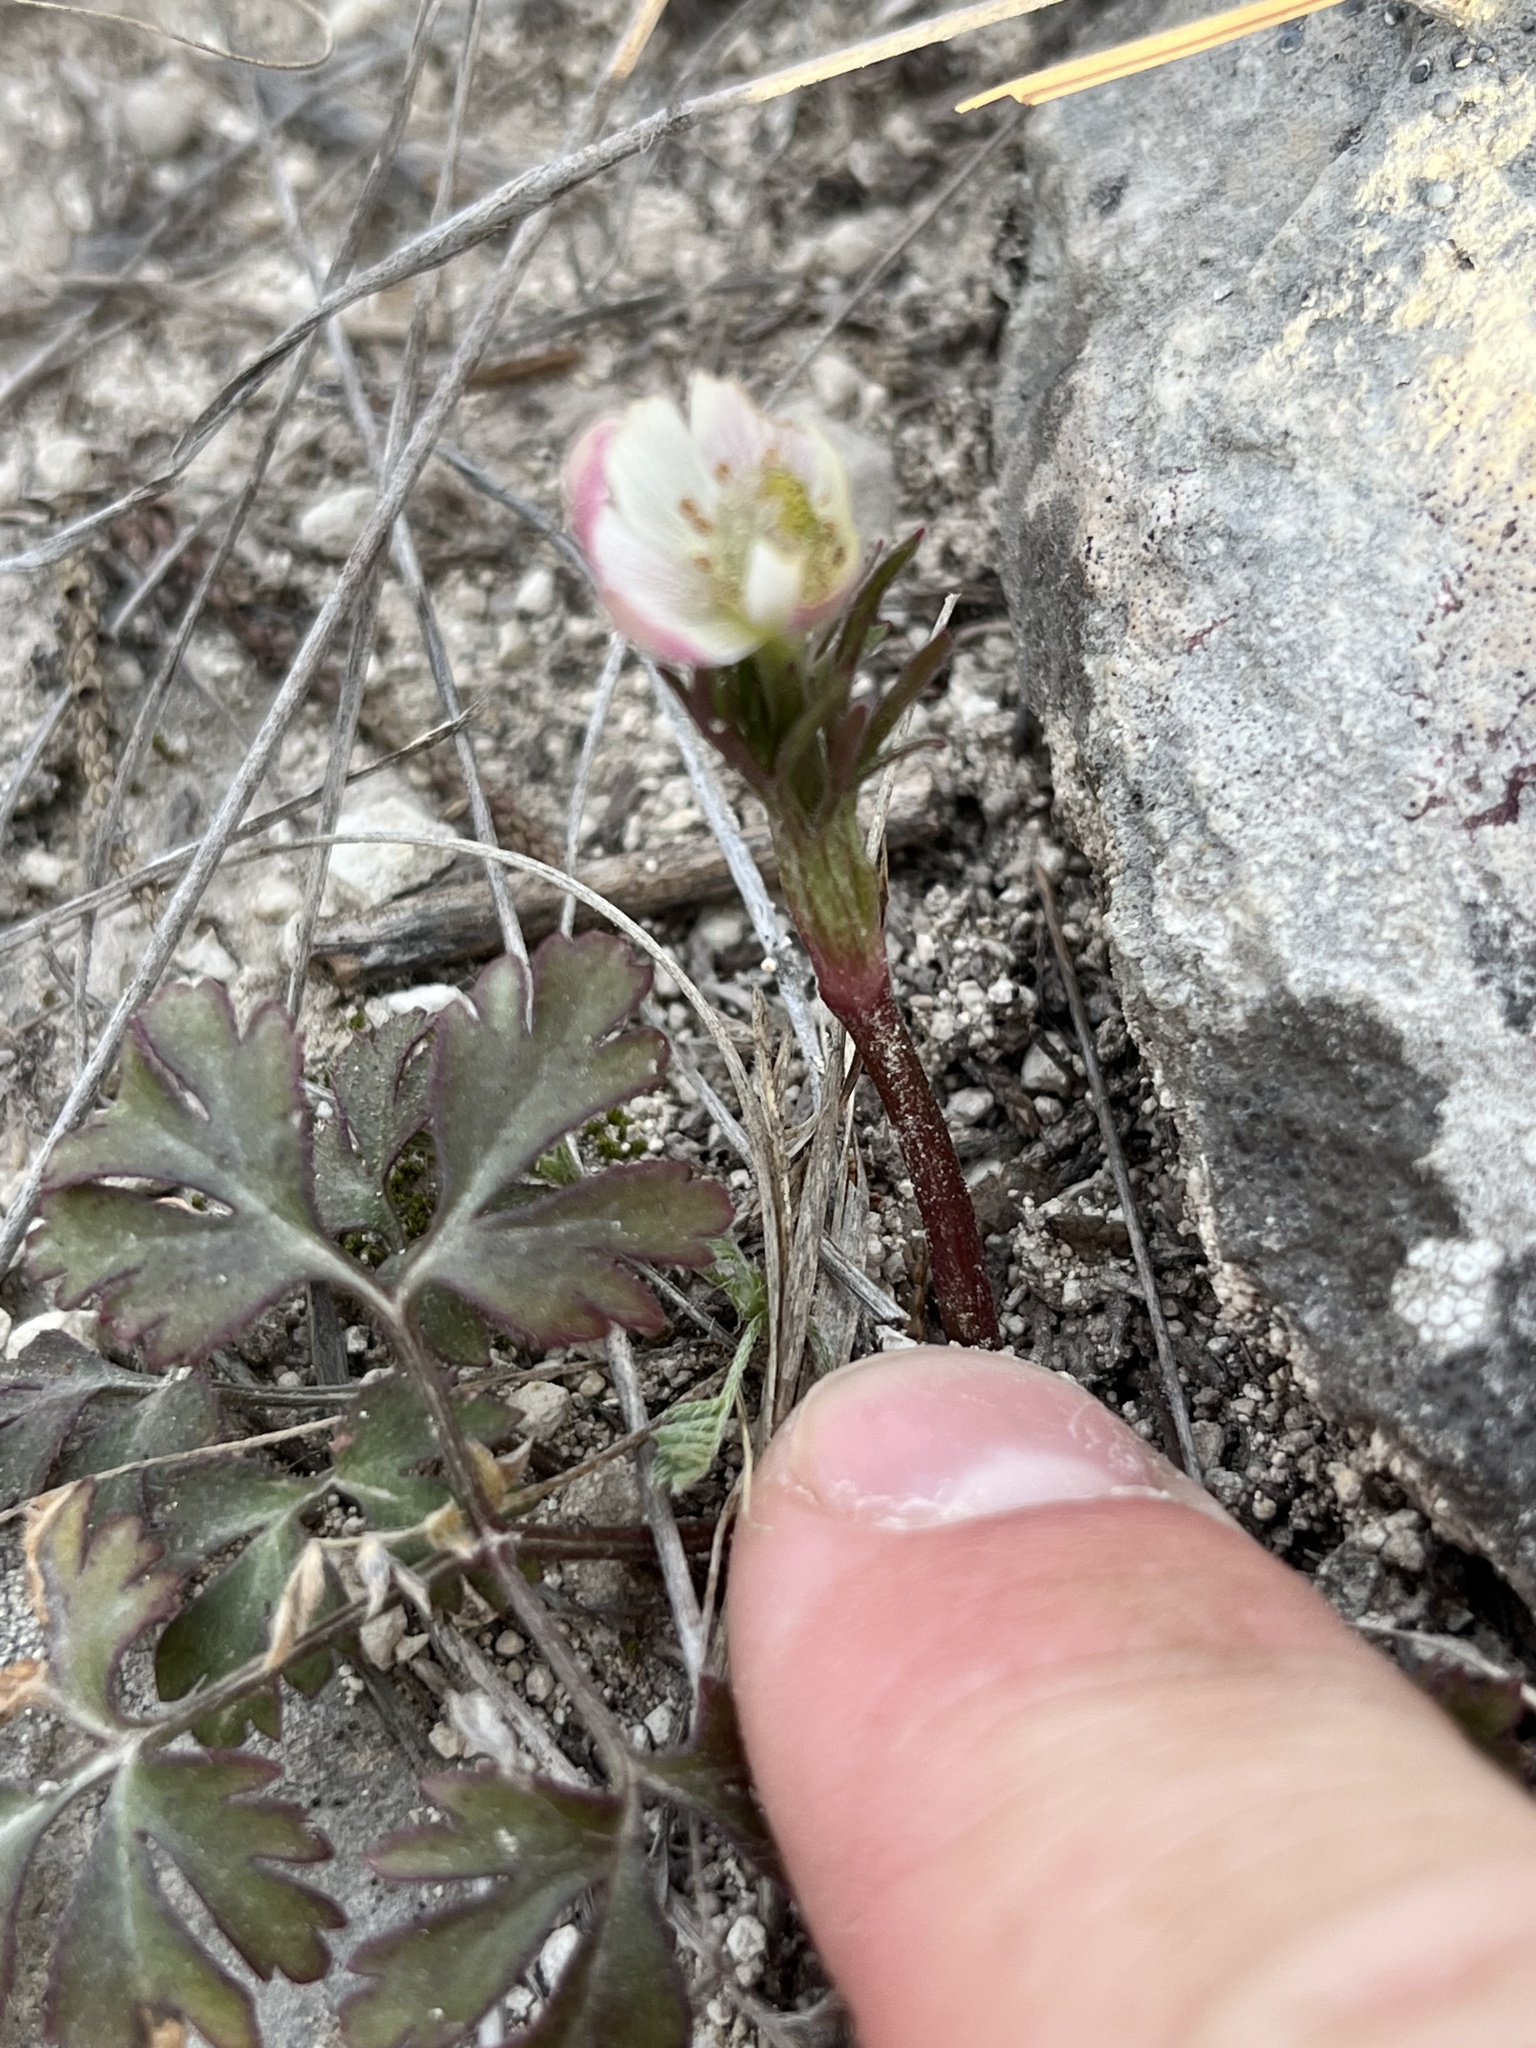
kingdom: Plantae
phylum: Tracheophyta
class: Magnoliopsida
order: Ranunculales
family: Ranunculaceae
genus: Anemone
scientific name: Anemone tuberosa
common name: Desert anemone
